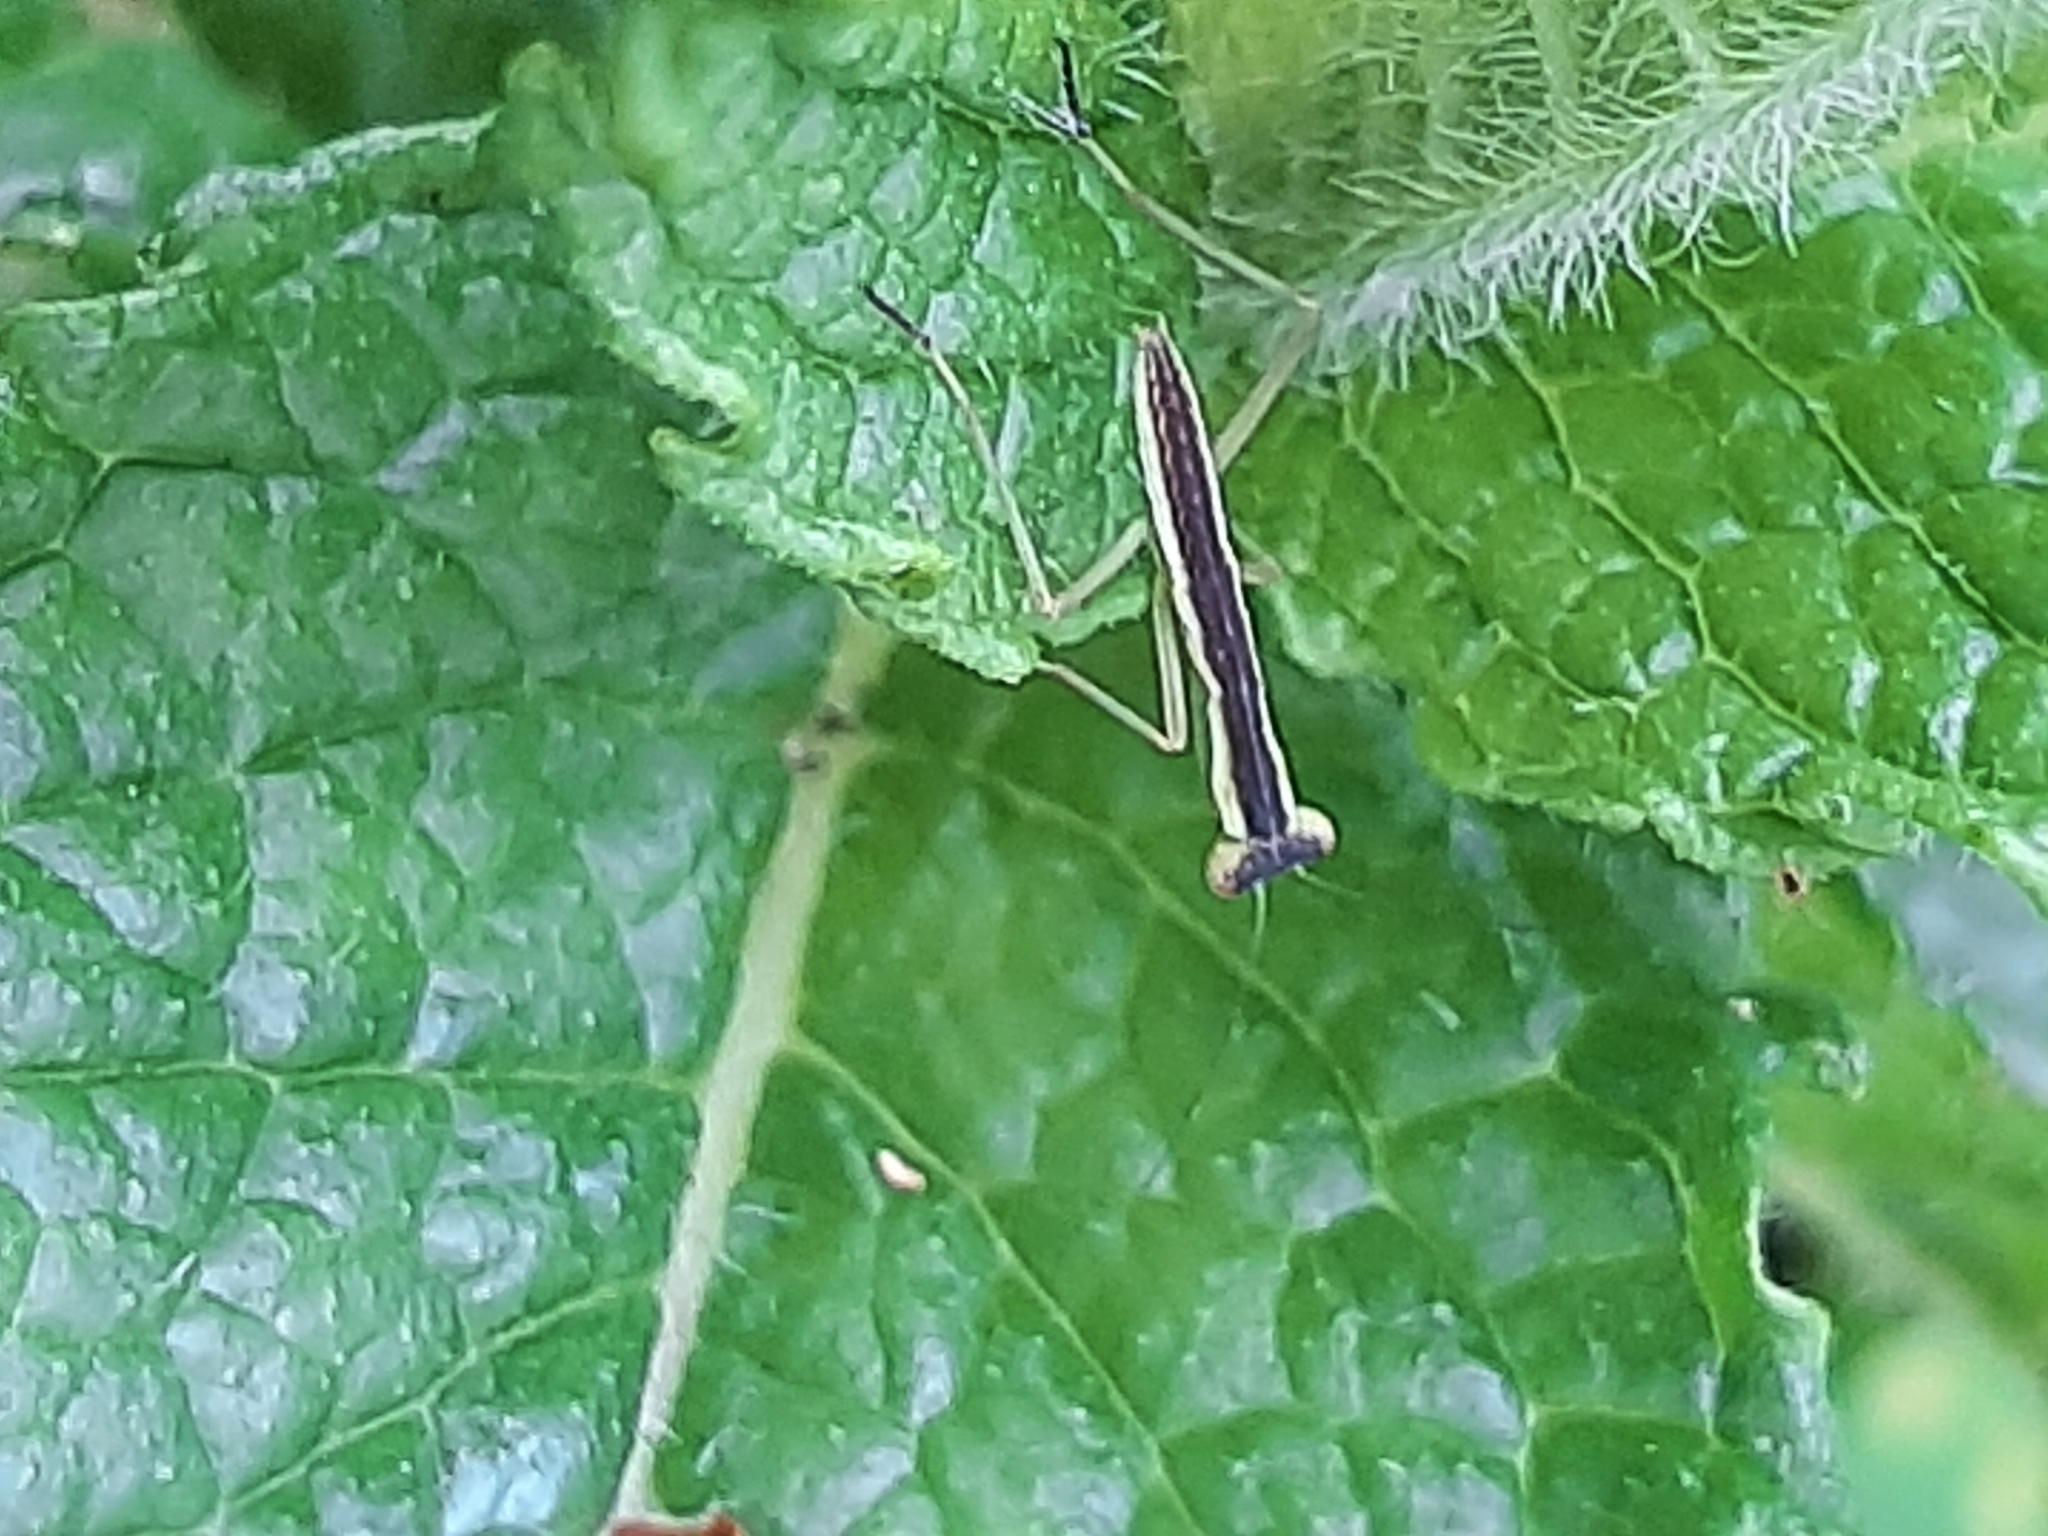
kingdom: Animalia
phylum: Arthropoda
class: Insecta
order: Mantodea
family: Mantidae
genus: Orthodera
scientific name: Orthodera novaezealandiae
